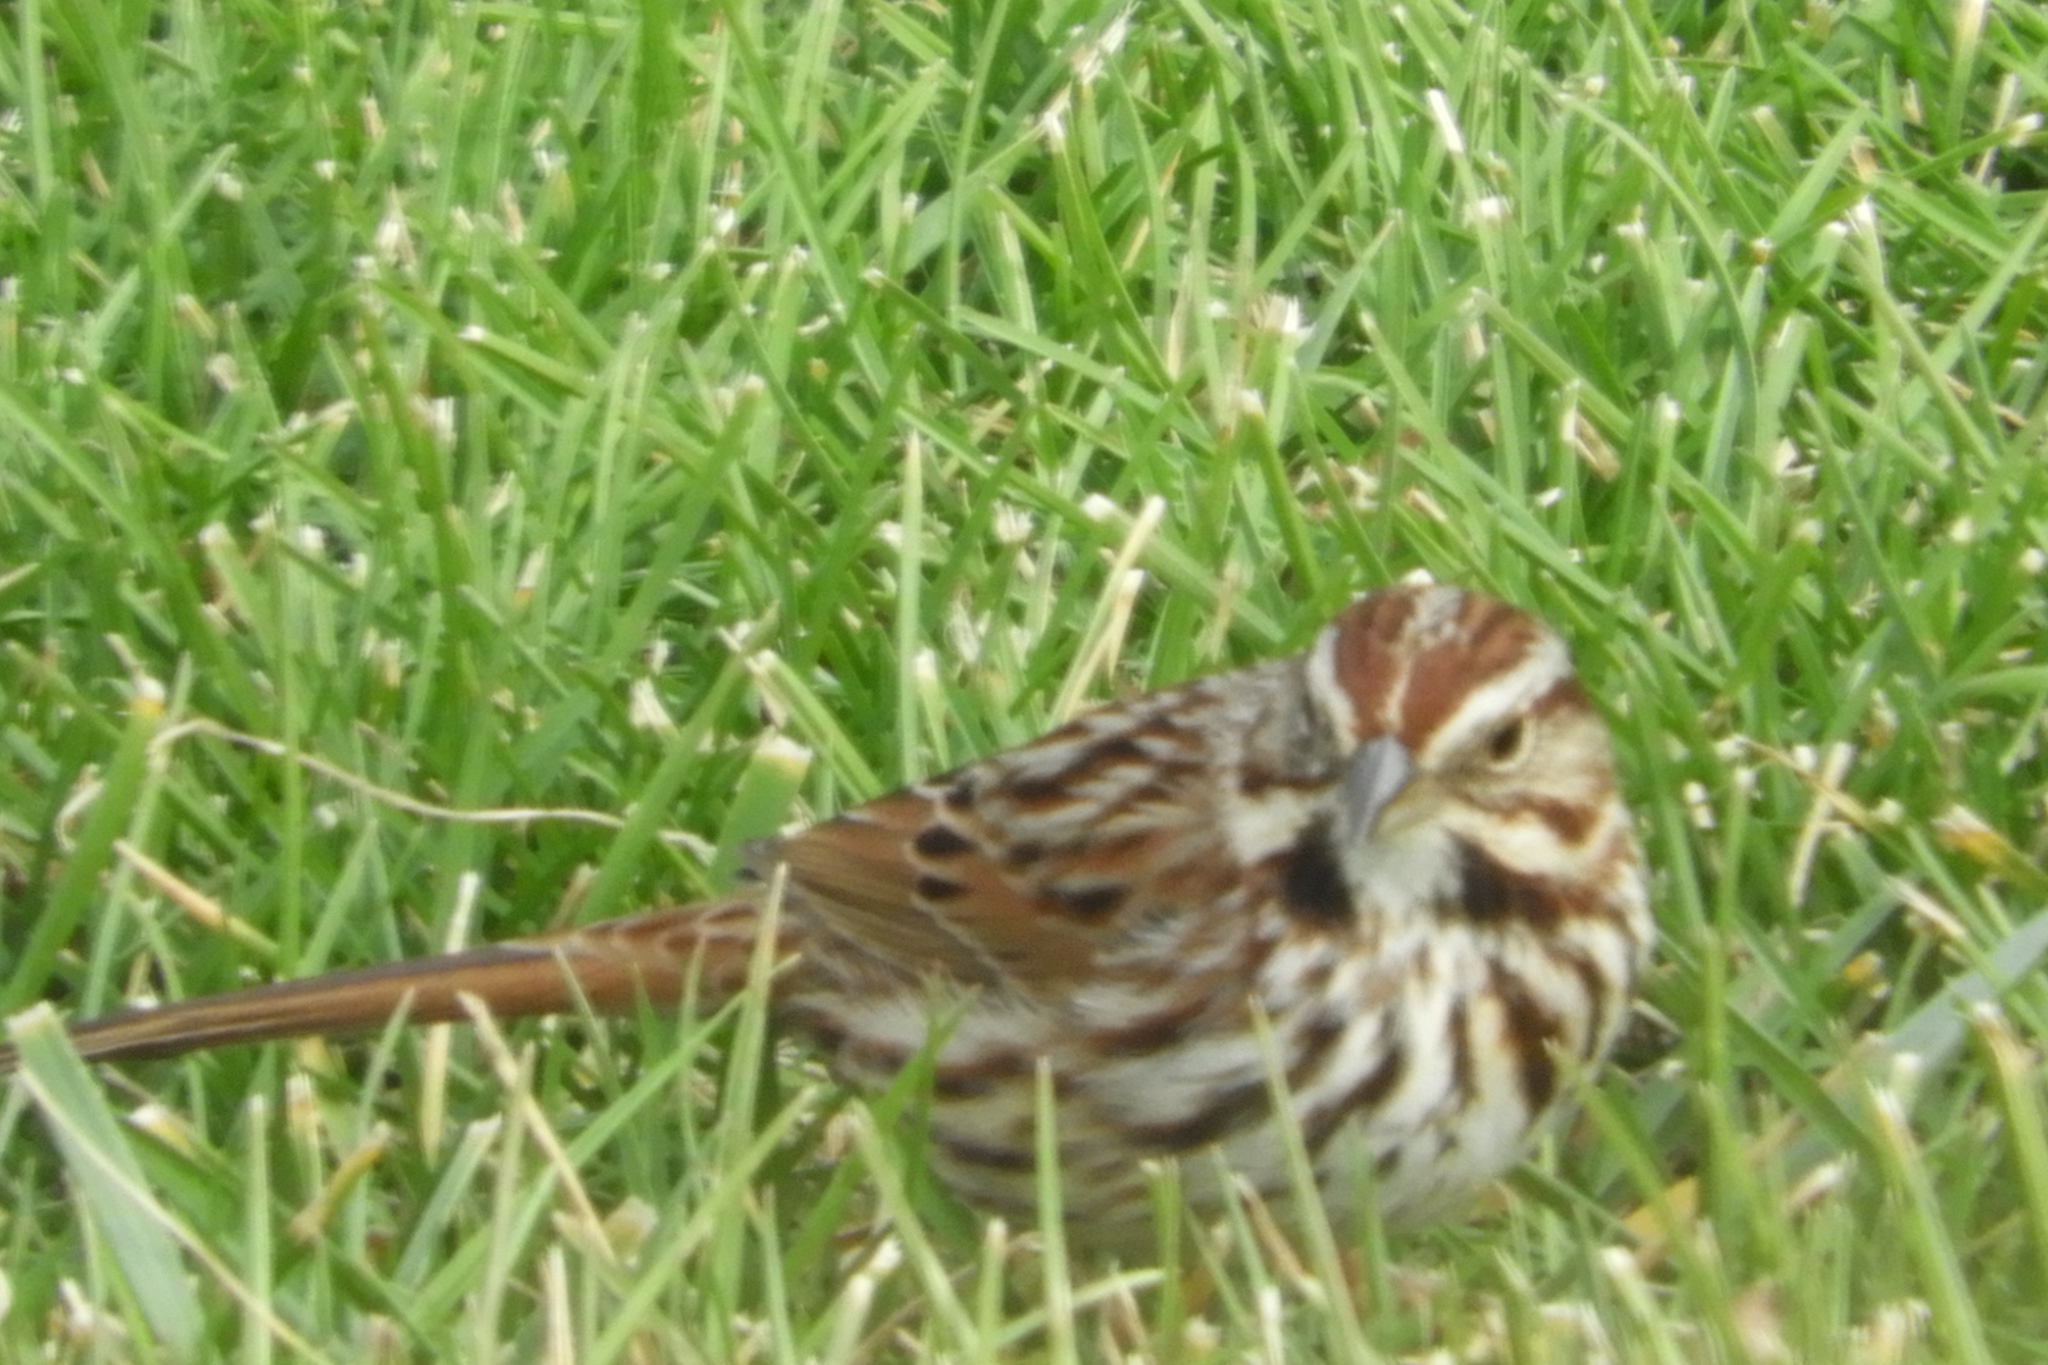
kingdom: Animalia
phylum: Chordata
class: Aves
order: Passeriformes
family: Passerellidae
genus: Melospiza
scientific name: Melospiza melodia
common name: Song sparrow
